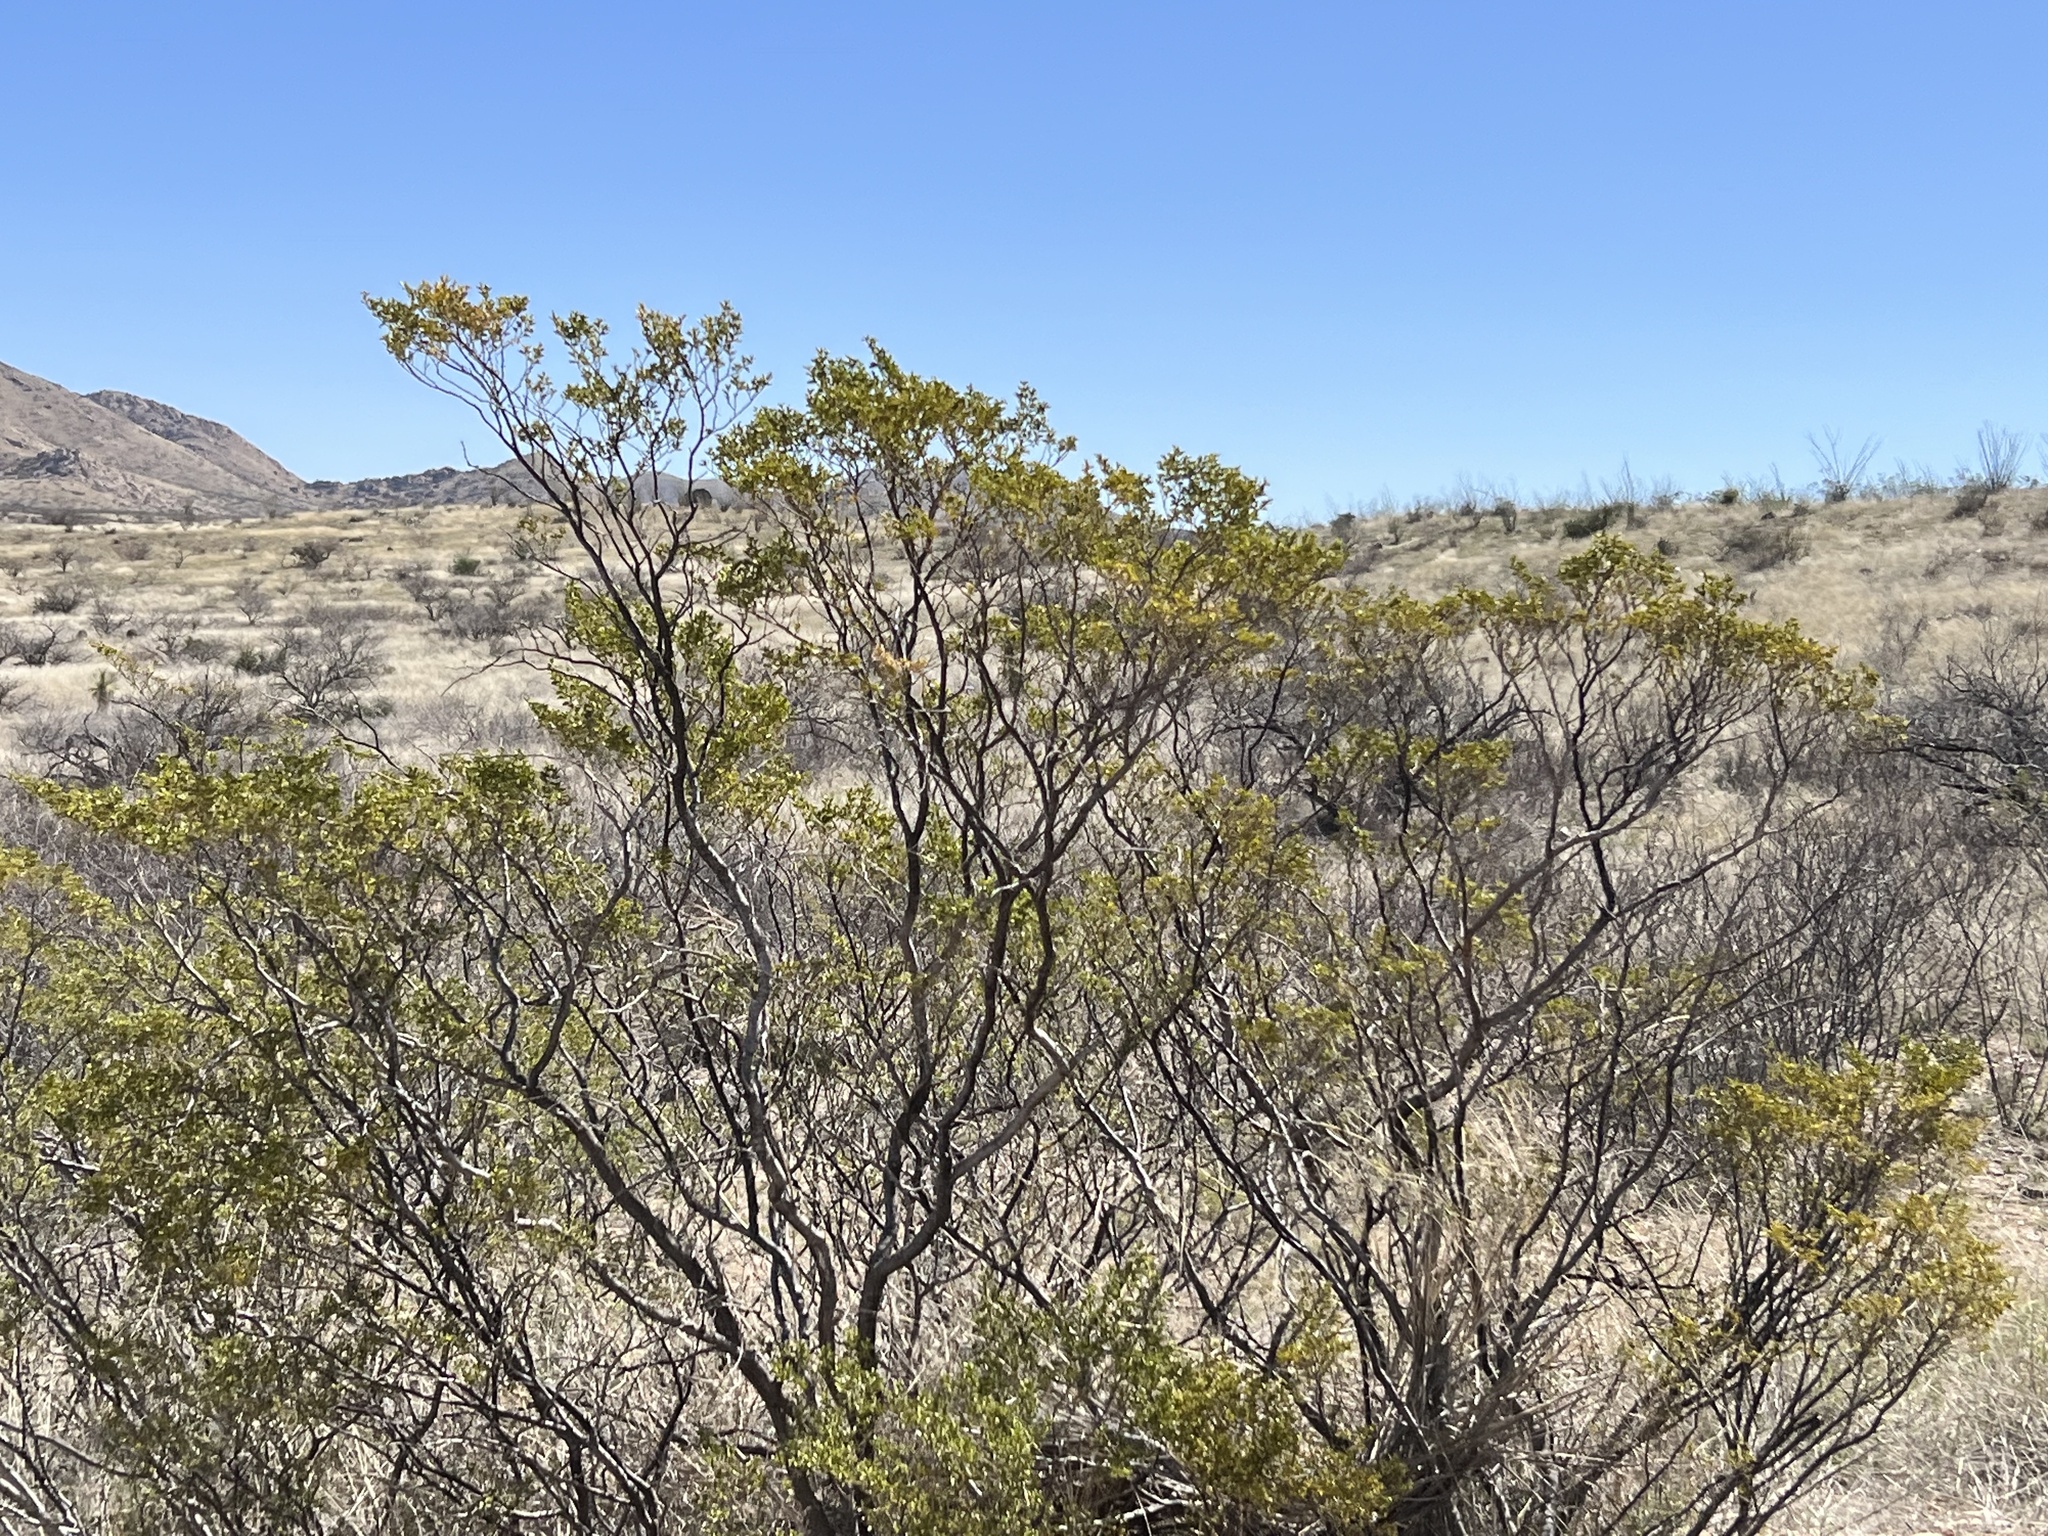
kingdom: Plantae
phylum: Tracheophyta
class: Magnoliopsida
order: Zygophyllales
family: Zygophyllaceae
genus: Larrea
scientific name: Larrea tridentata
